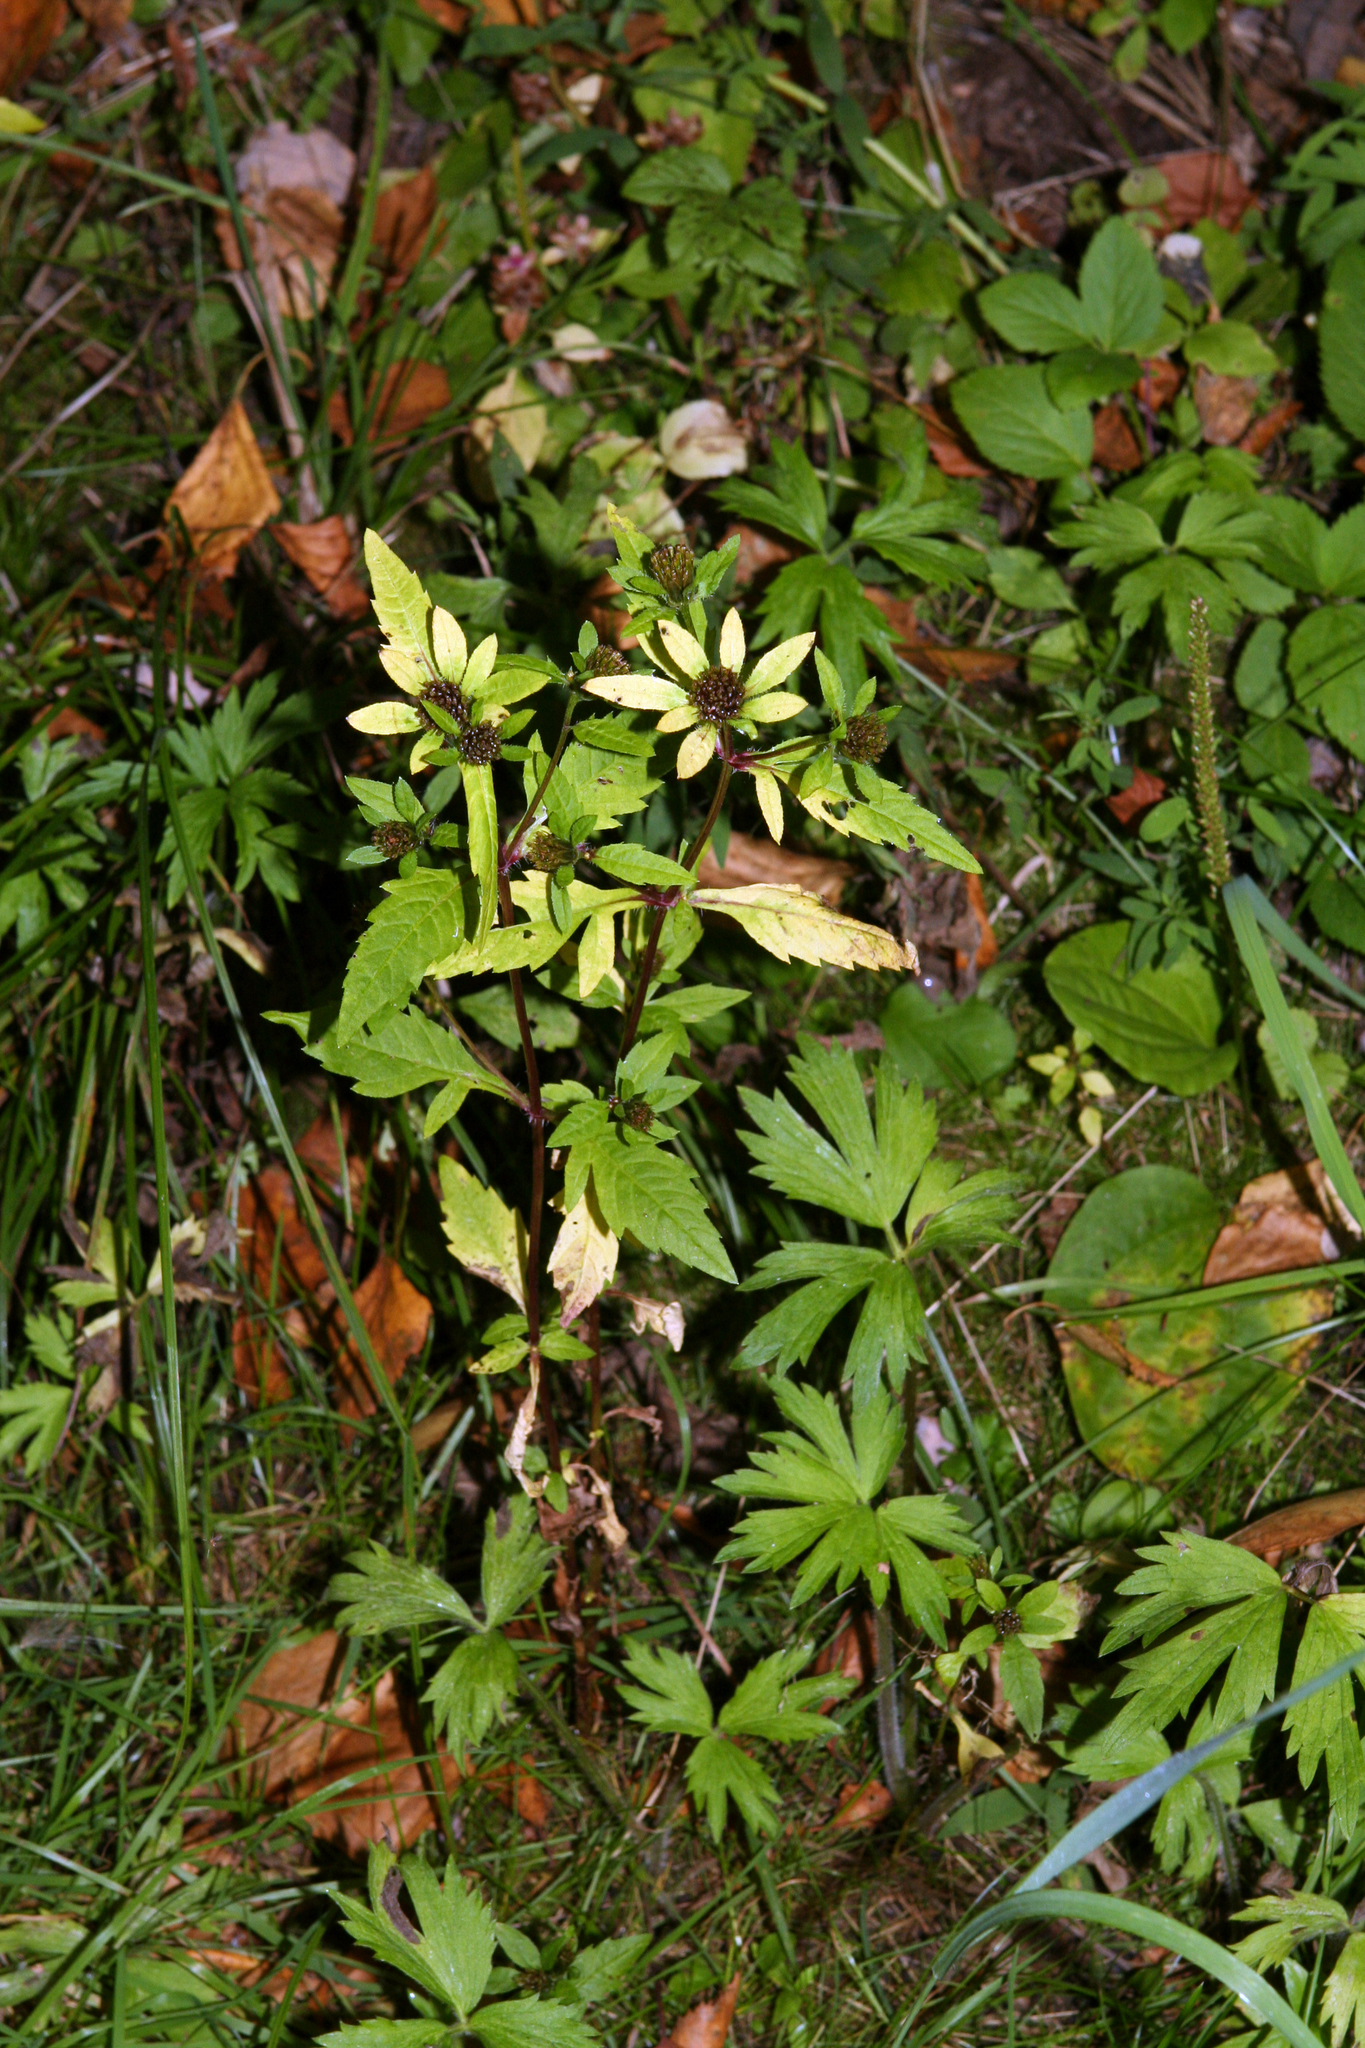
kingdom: Plantae
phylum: Tracheophyta
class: Magnoliopsida
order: Asterales
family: Asteraceae
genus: Bidens
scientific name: Bidens tripartita
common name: Trifid bur-marigold
